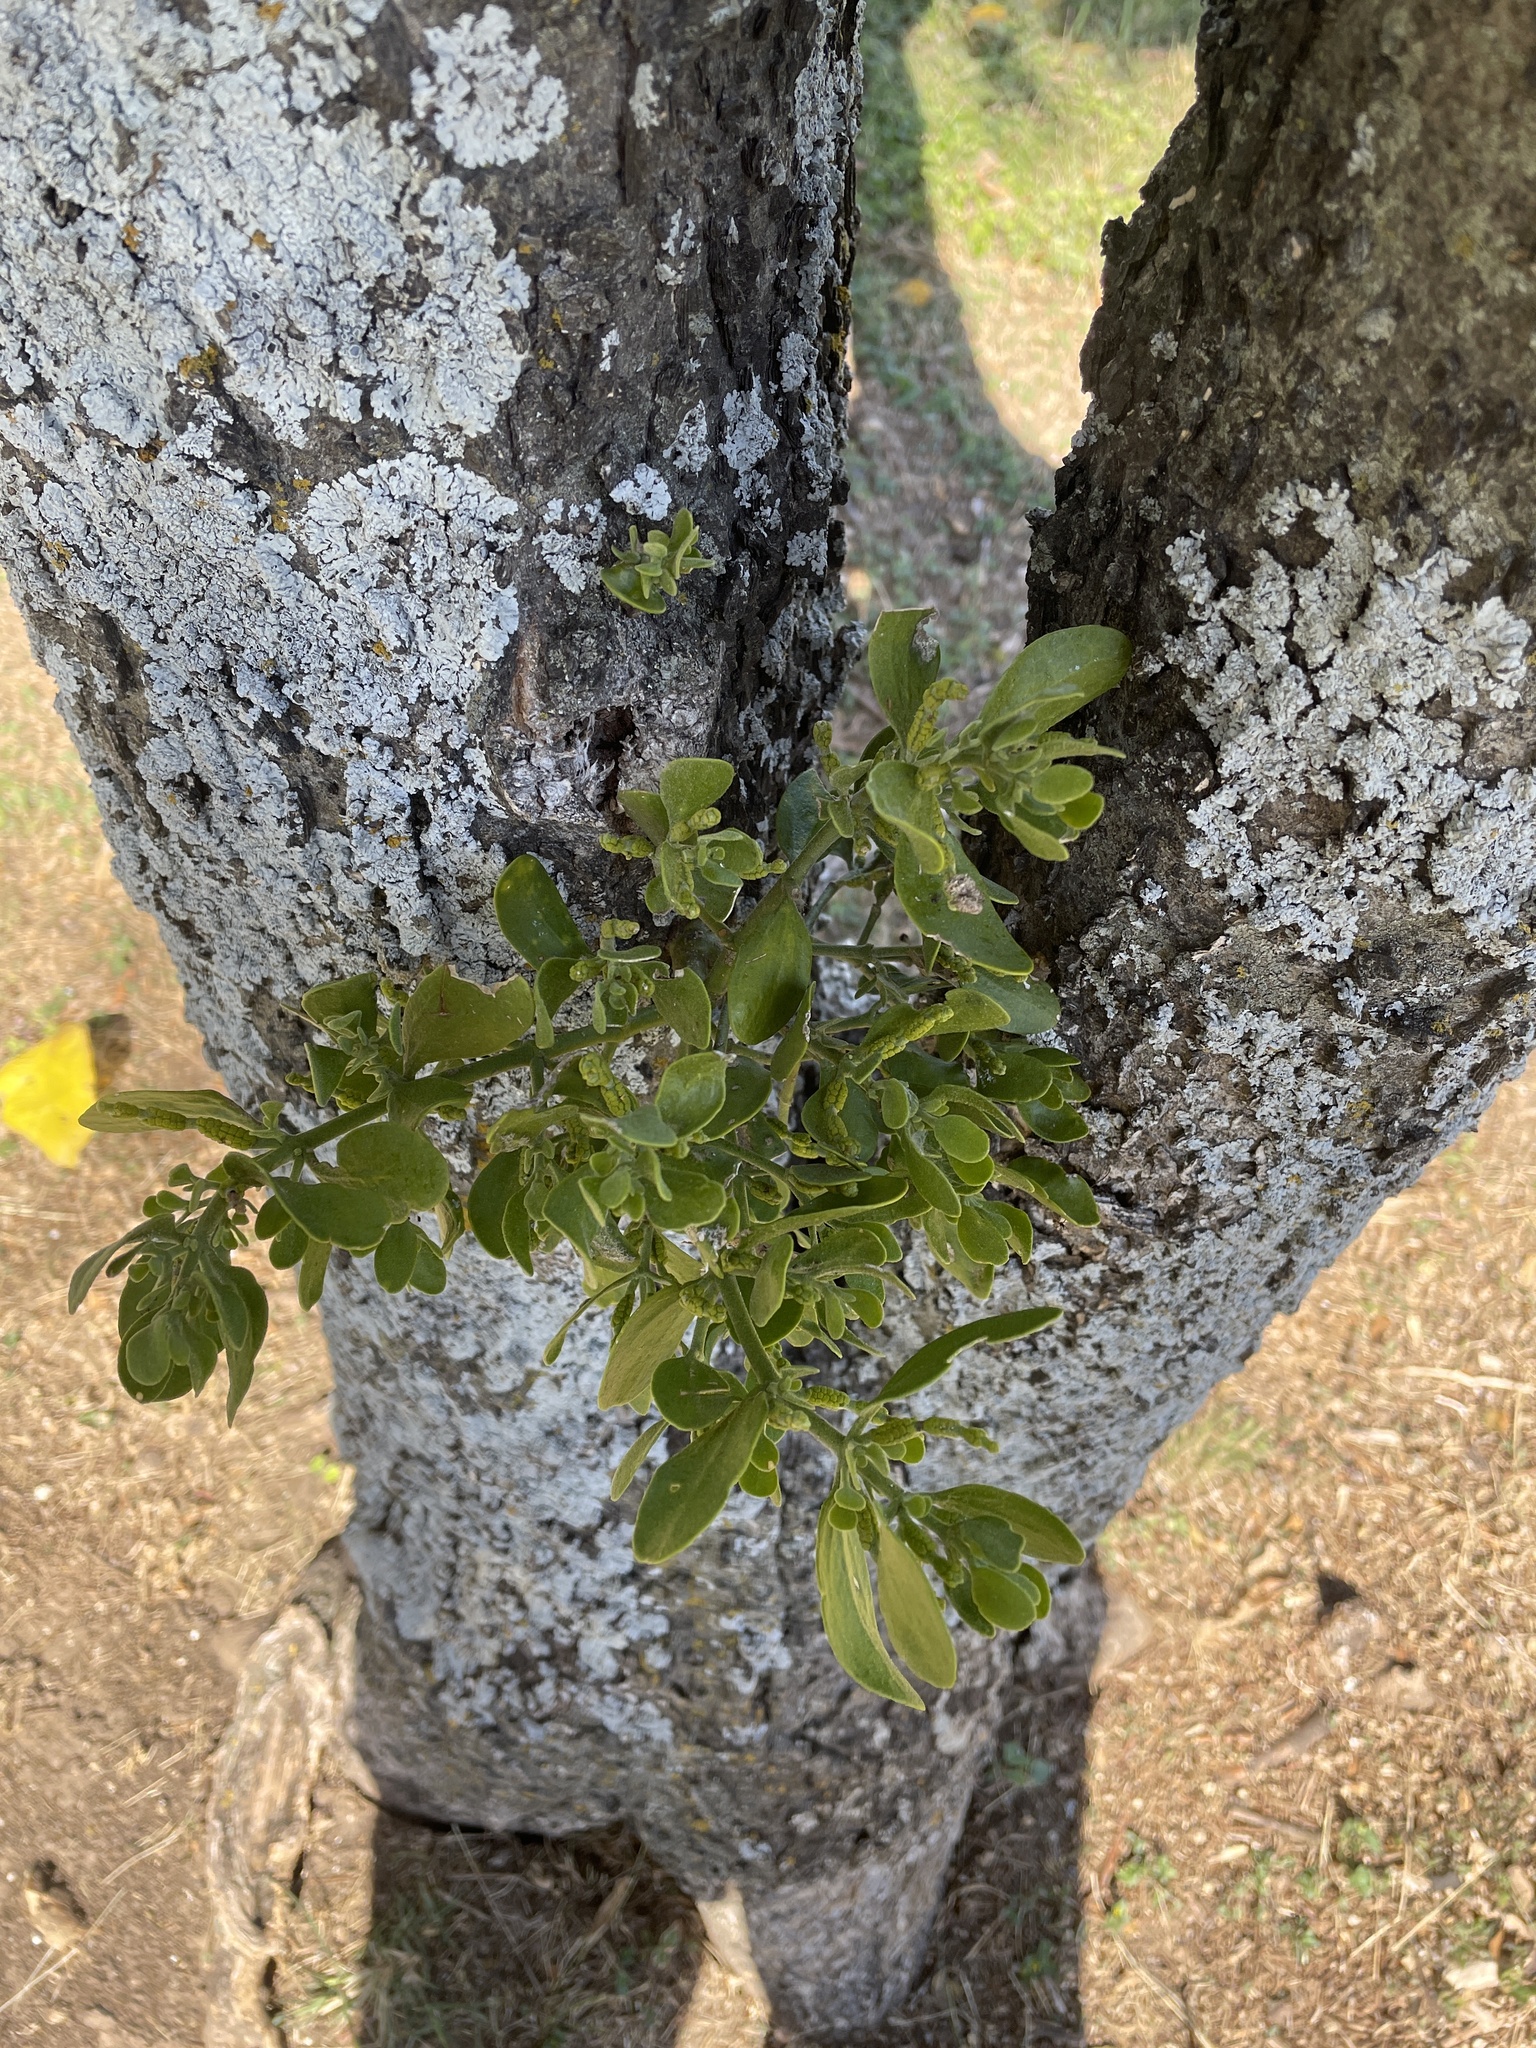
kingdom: Plantae
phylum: Tracheophyta
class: Magnoliopsida
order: Santalales
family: Viscaceae
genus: Phoradendron
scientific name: Phoradendron leucarpum
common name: Pacific mistletoe
